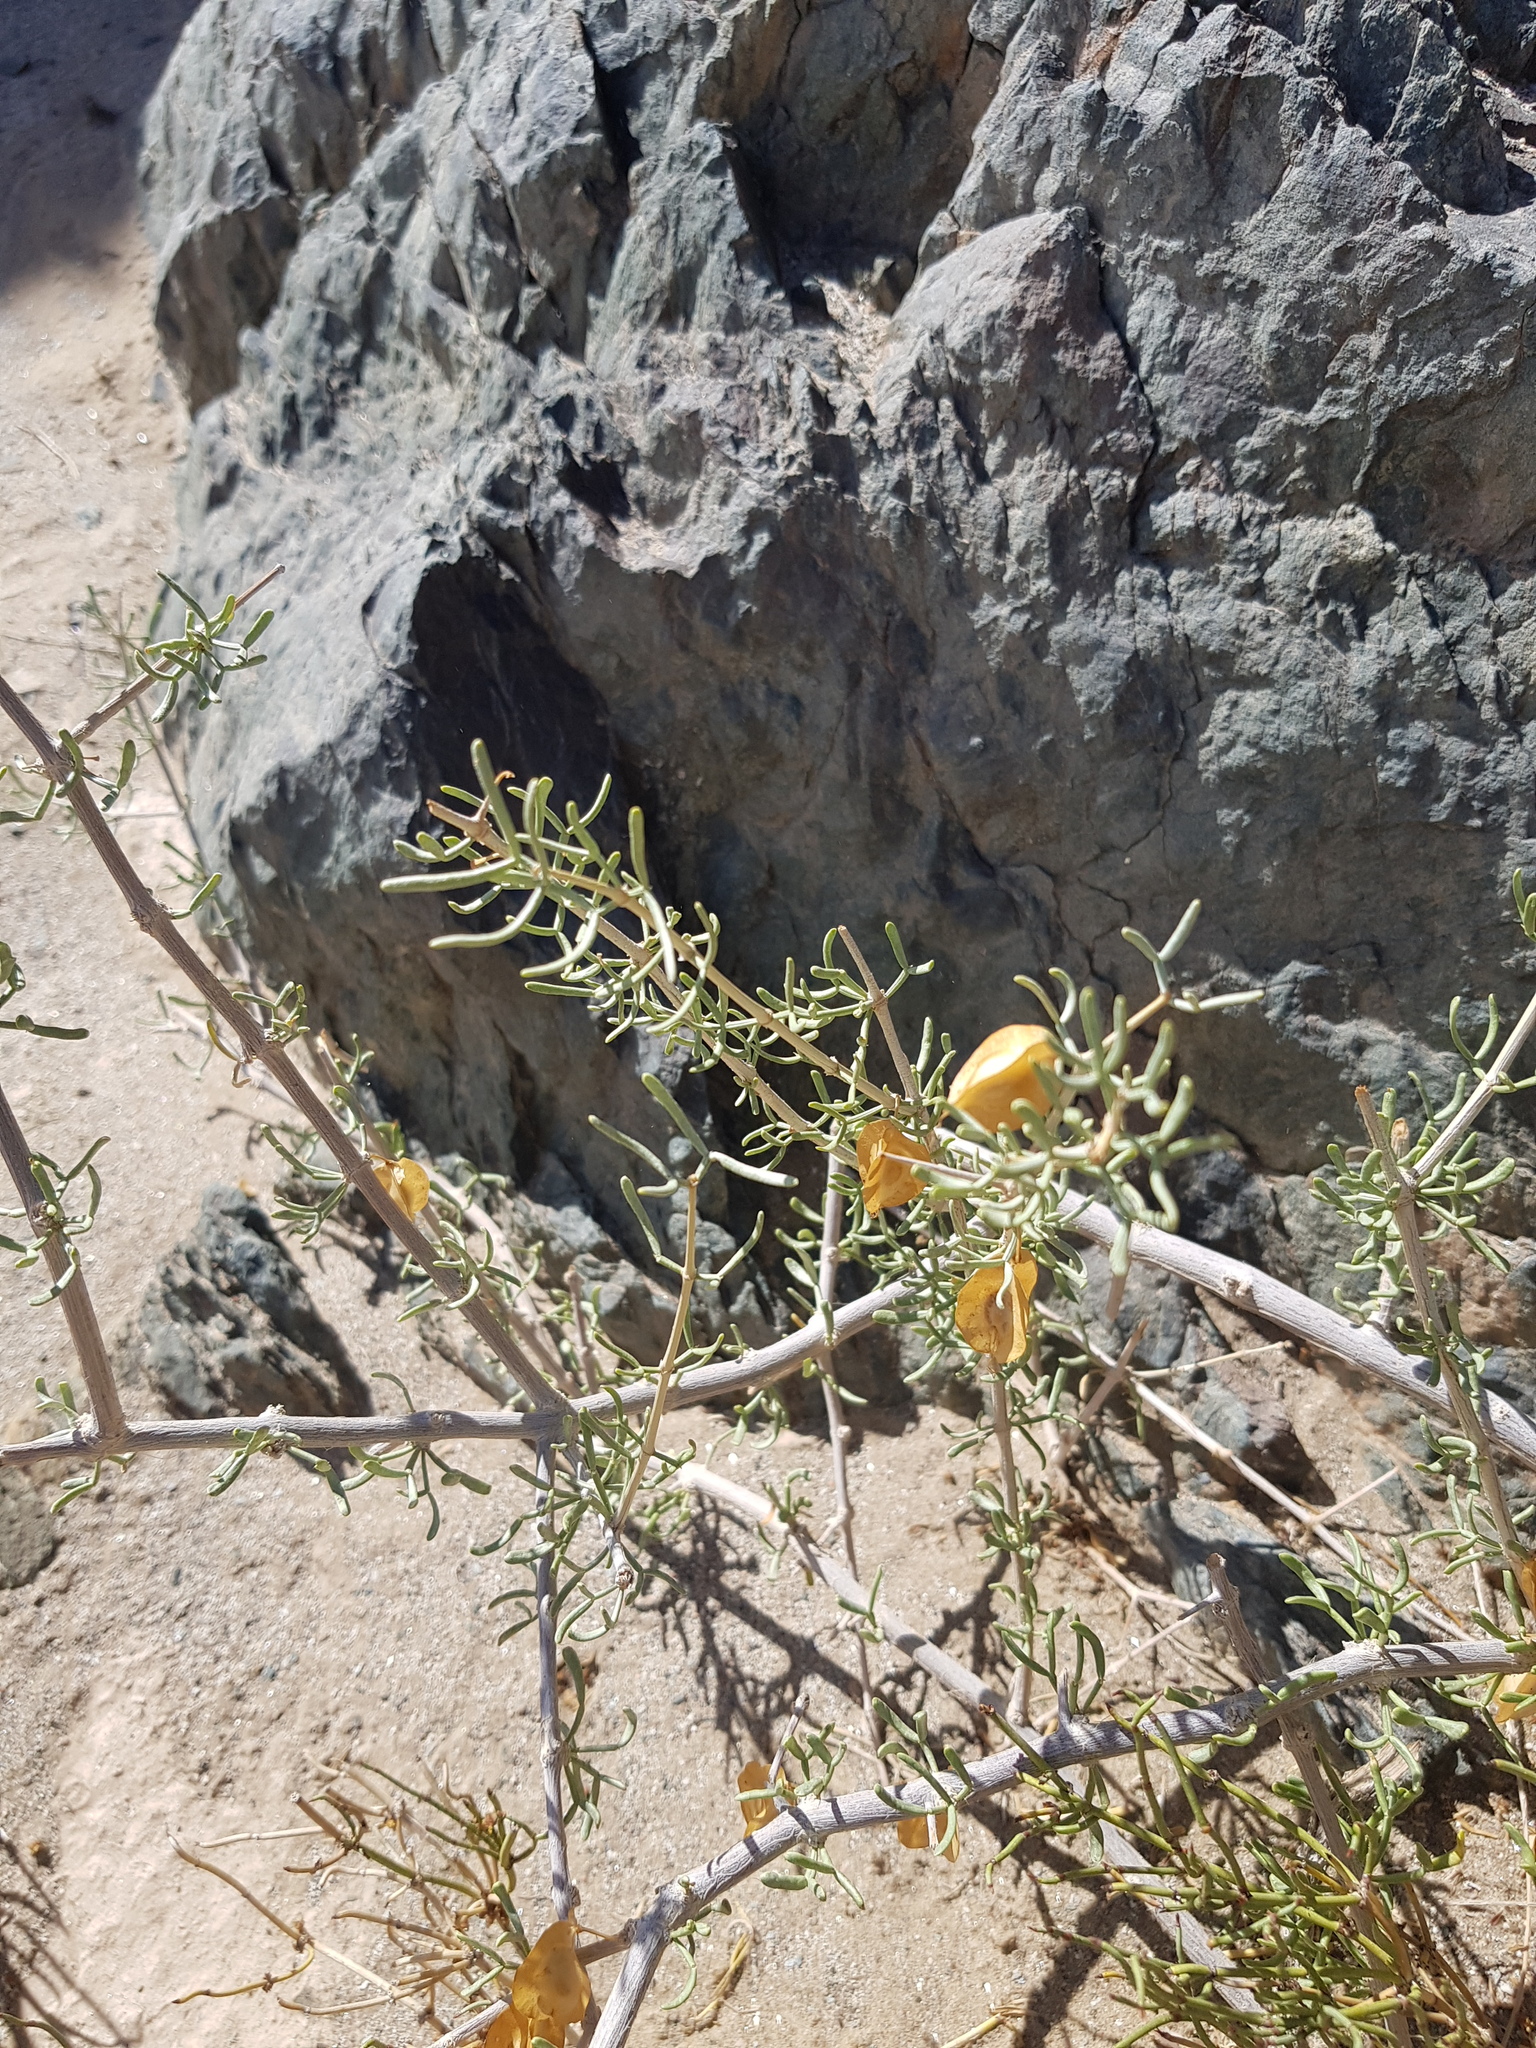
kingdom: Plantae
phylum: Tracheophyta
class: Magnoliopsida
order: Zygophyllales
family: Zygophyllaceae
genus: Zygophyllum
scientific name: Zygophyllum xanthoxylum
